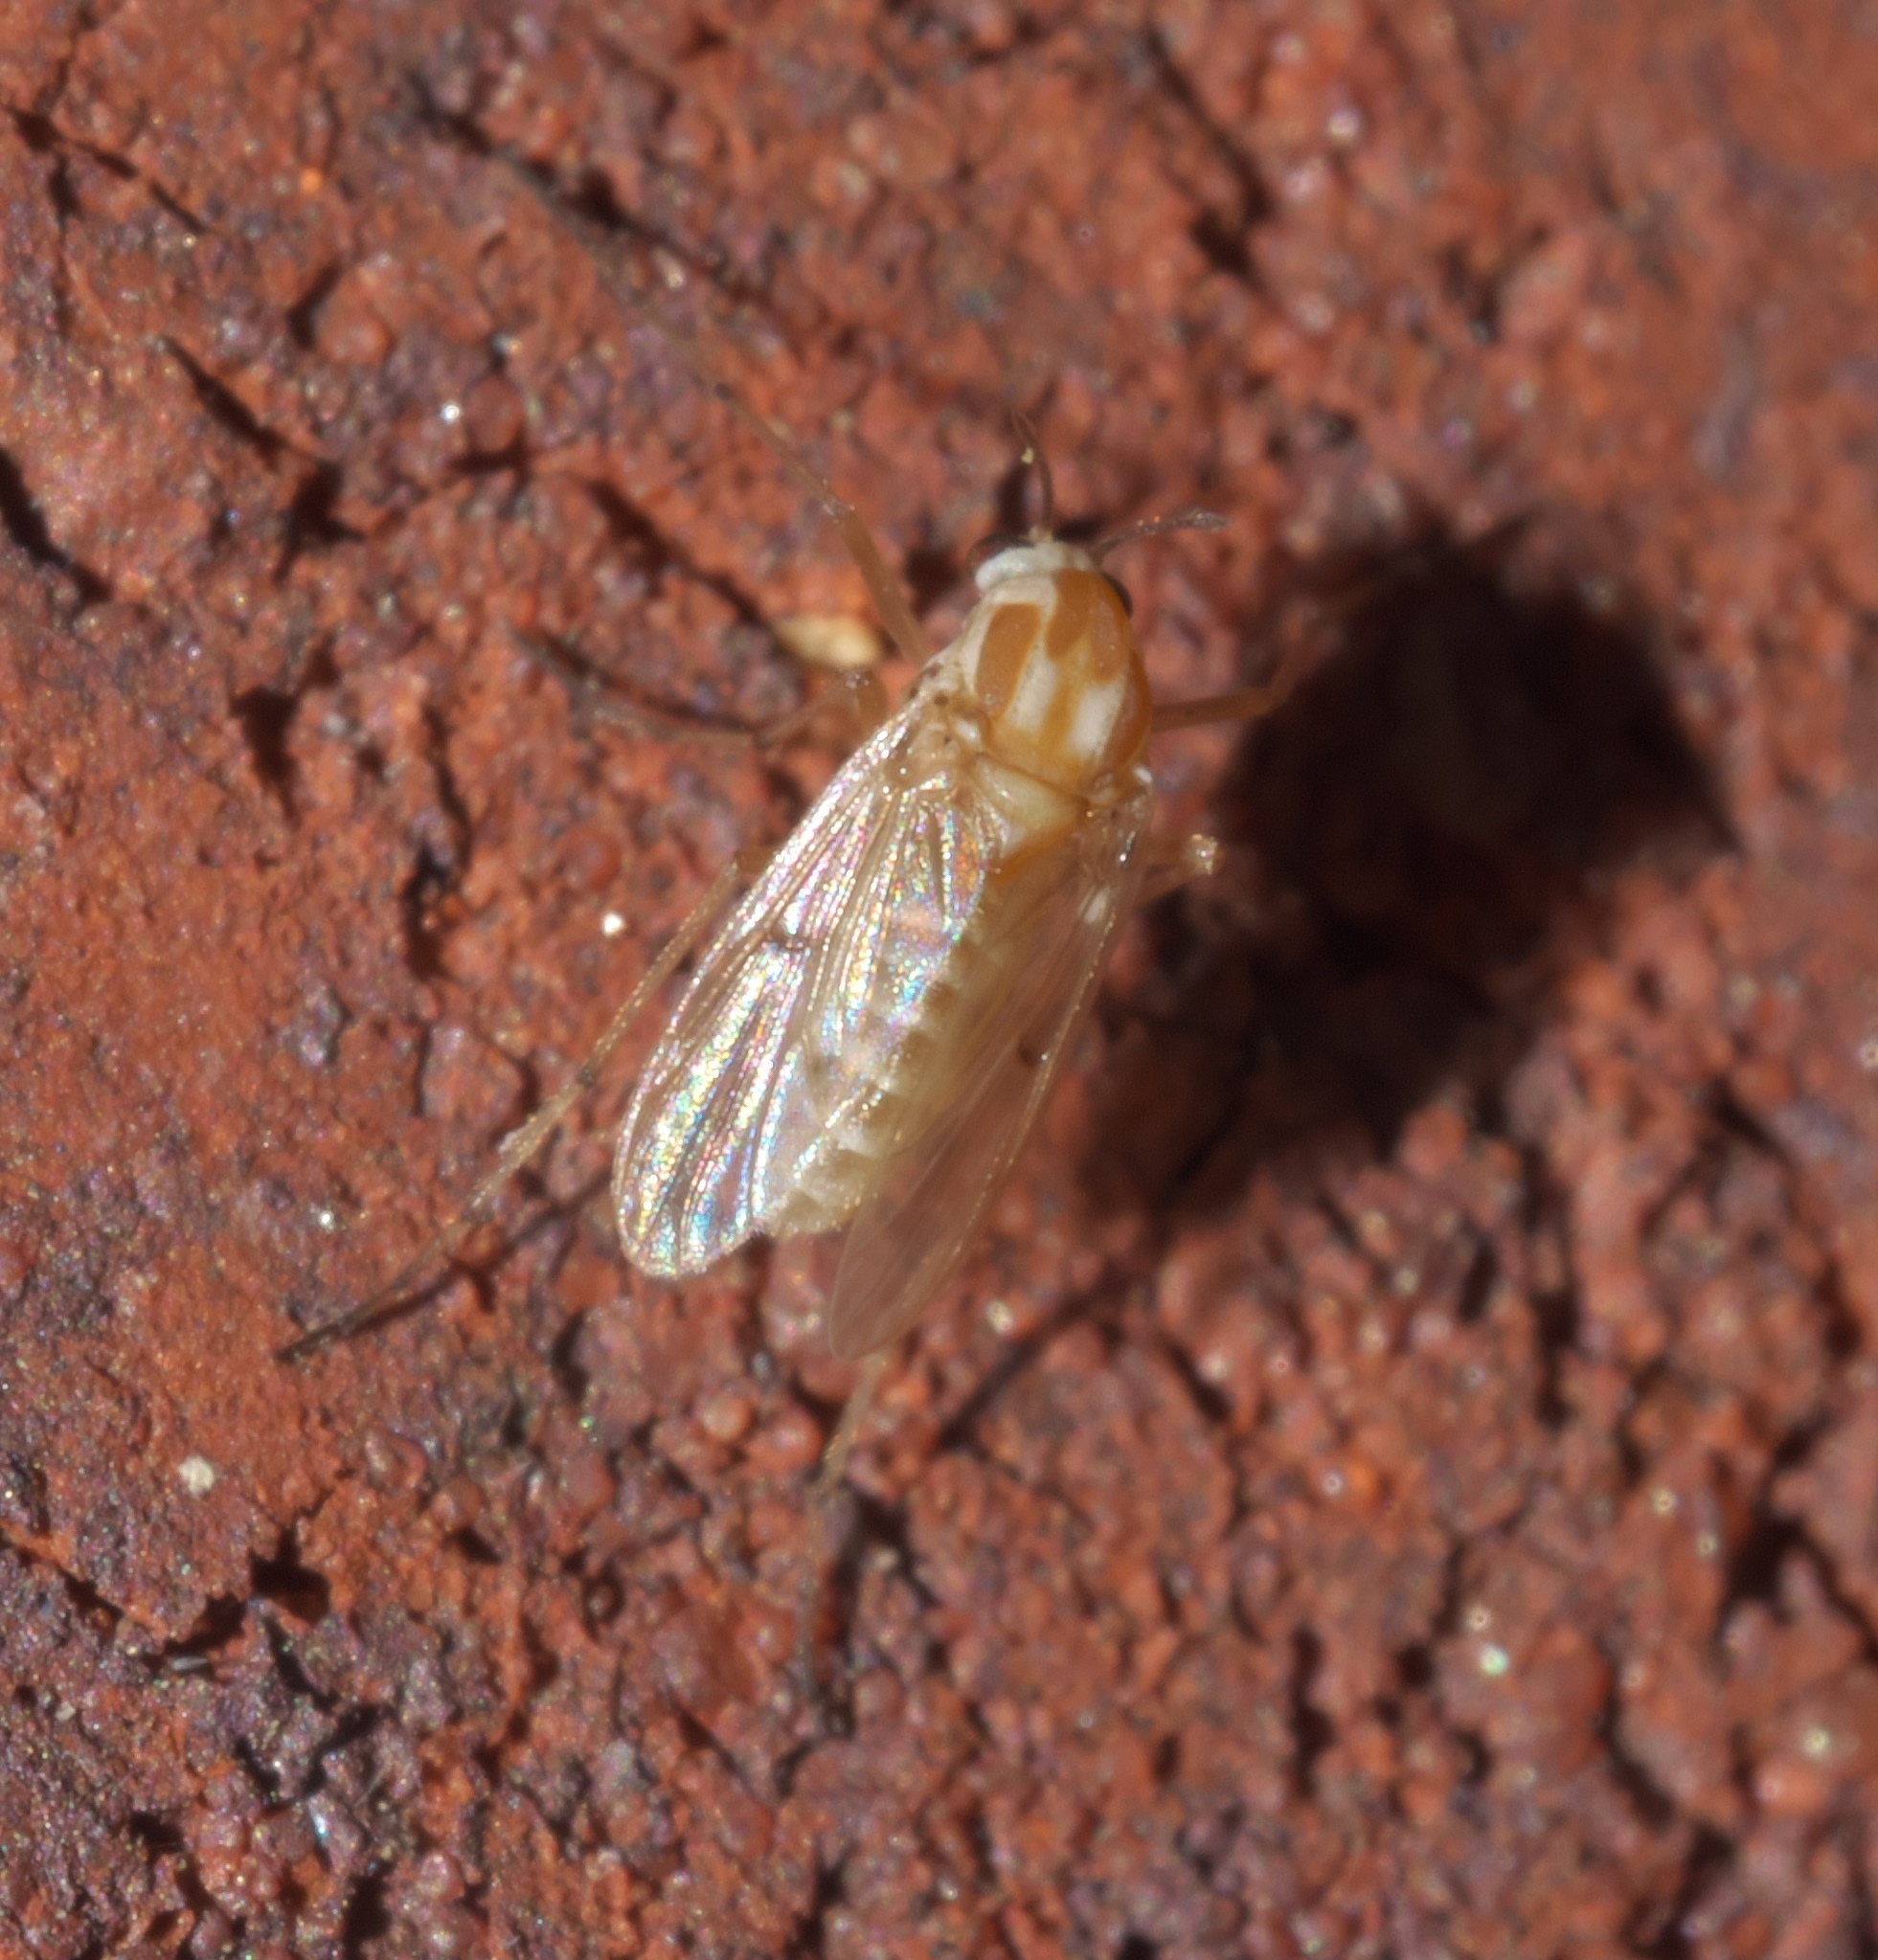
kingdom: Animalia
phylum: Arthropoda
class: Insecta
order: Diptera
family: Chironomidae
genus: Procladius
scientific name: Procladius bellus
